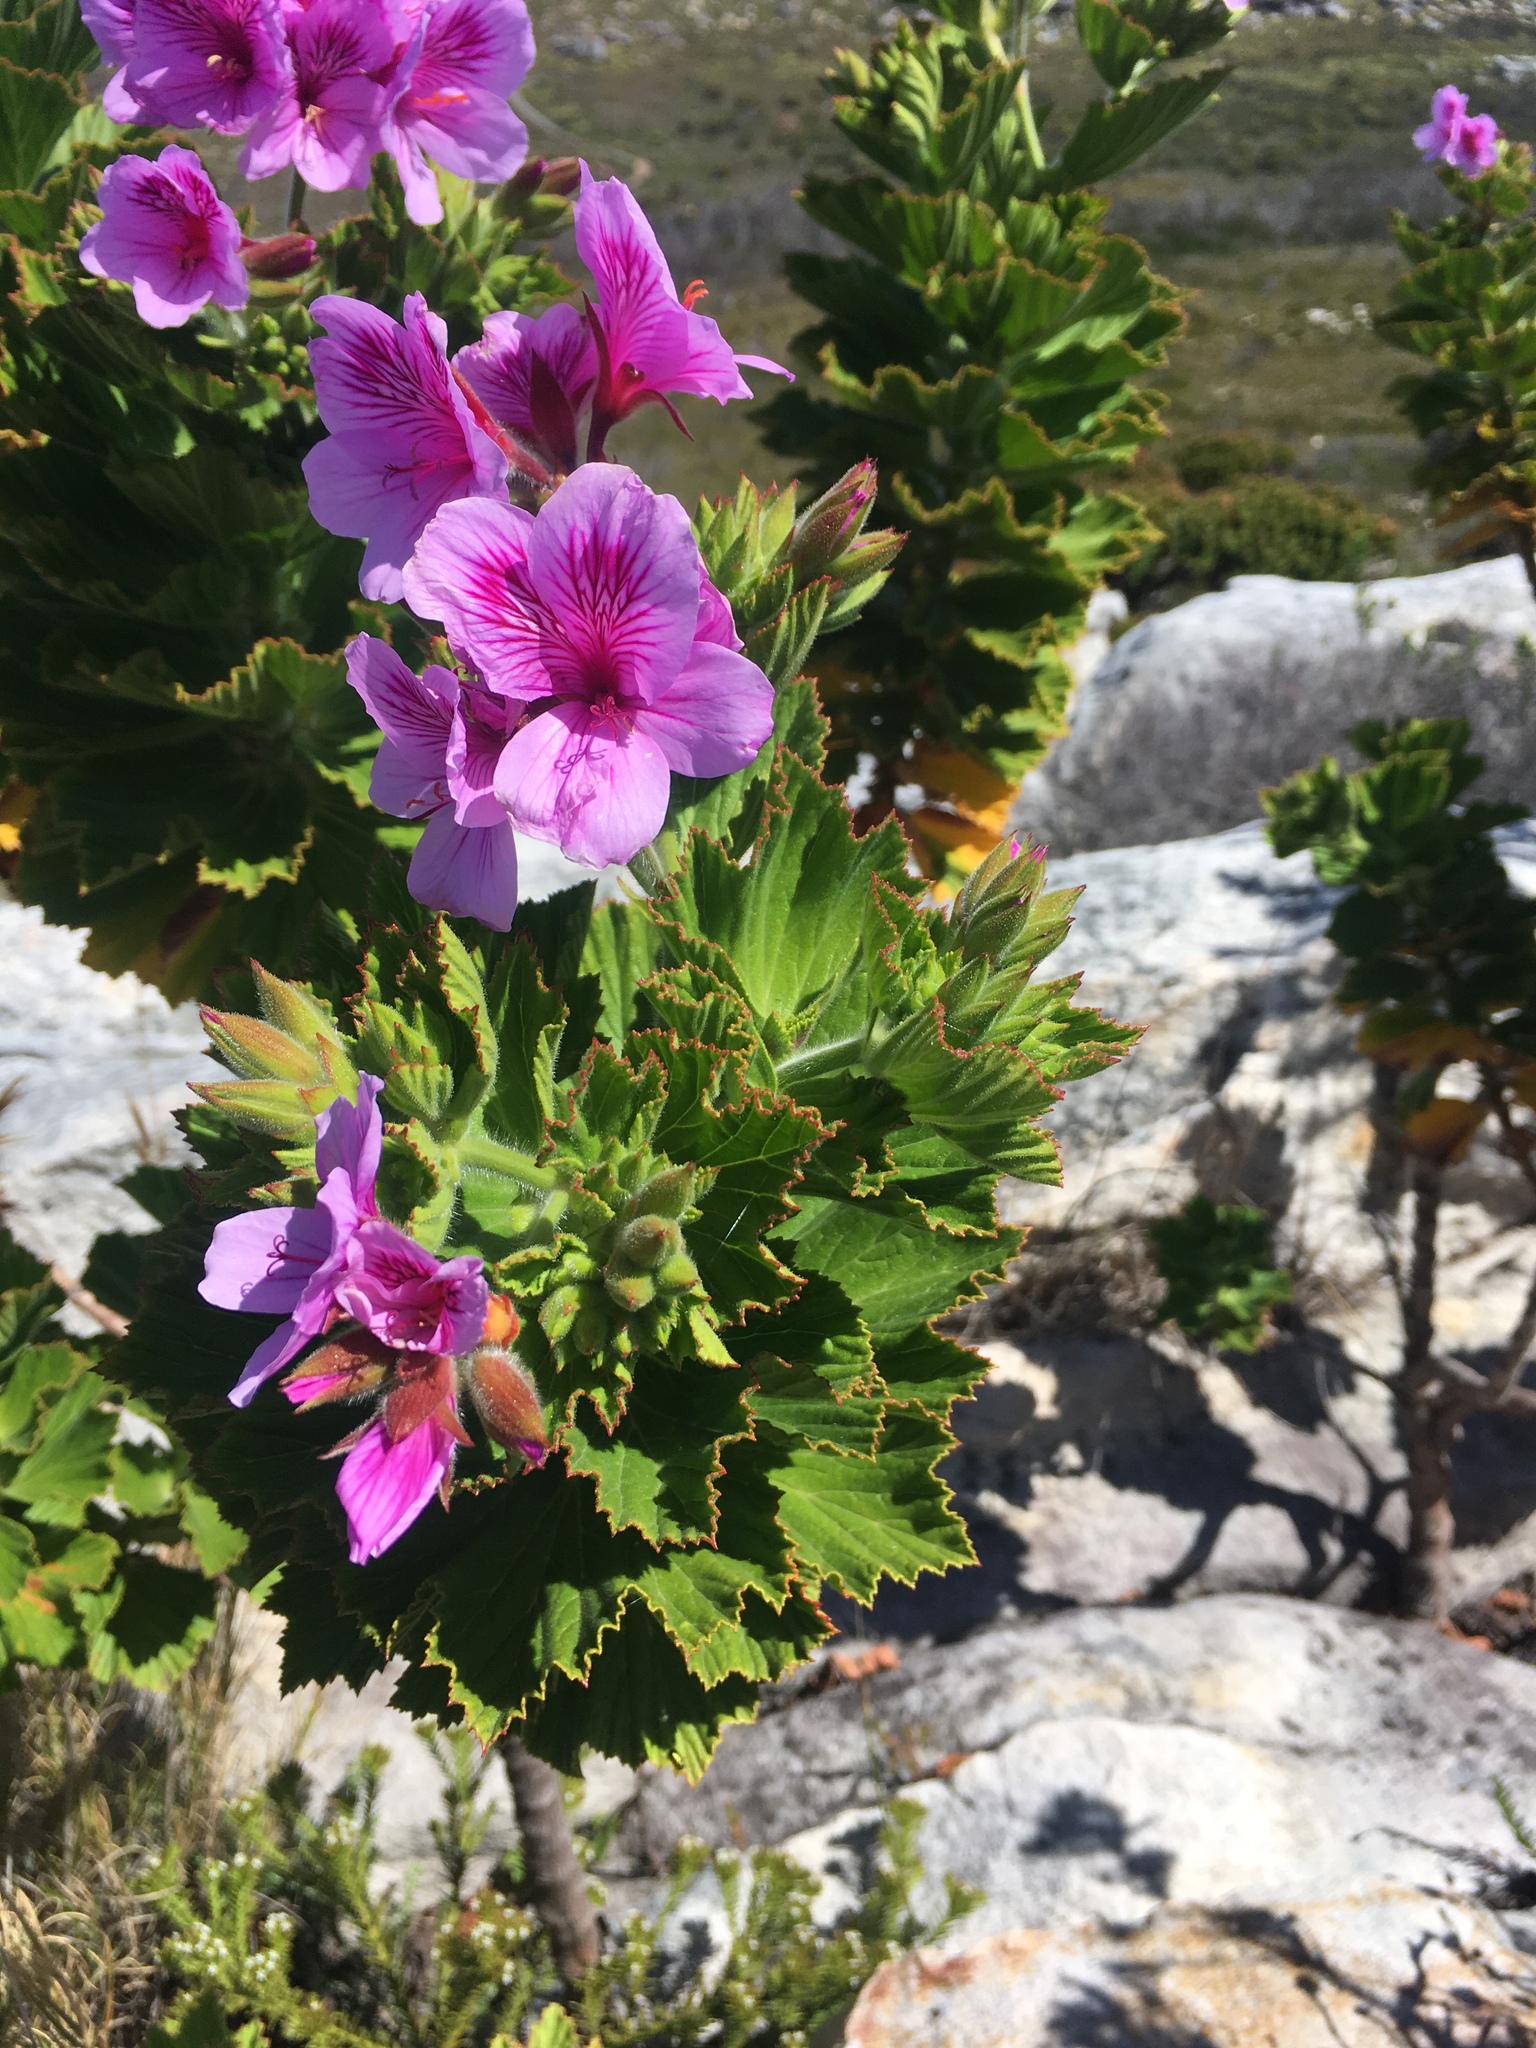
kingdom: Plantae
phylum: Tracheophyta
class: Magnoliopsida
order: Geraniales
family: Geraniaceae
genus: Pelargonium
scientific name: Pelargonium cucullatum
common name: Tree pelargonium
